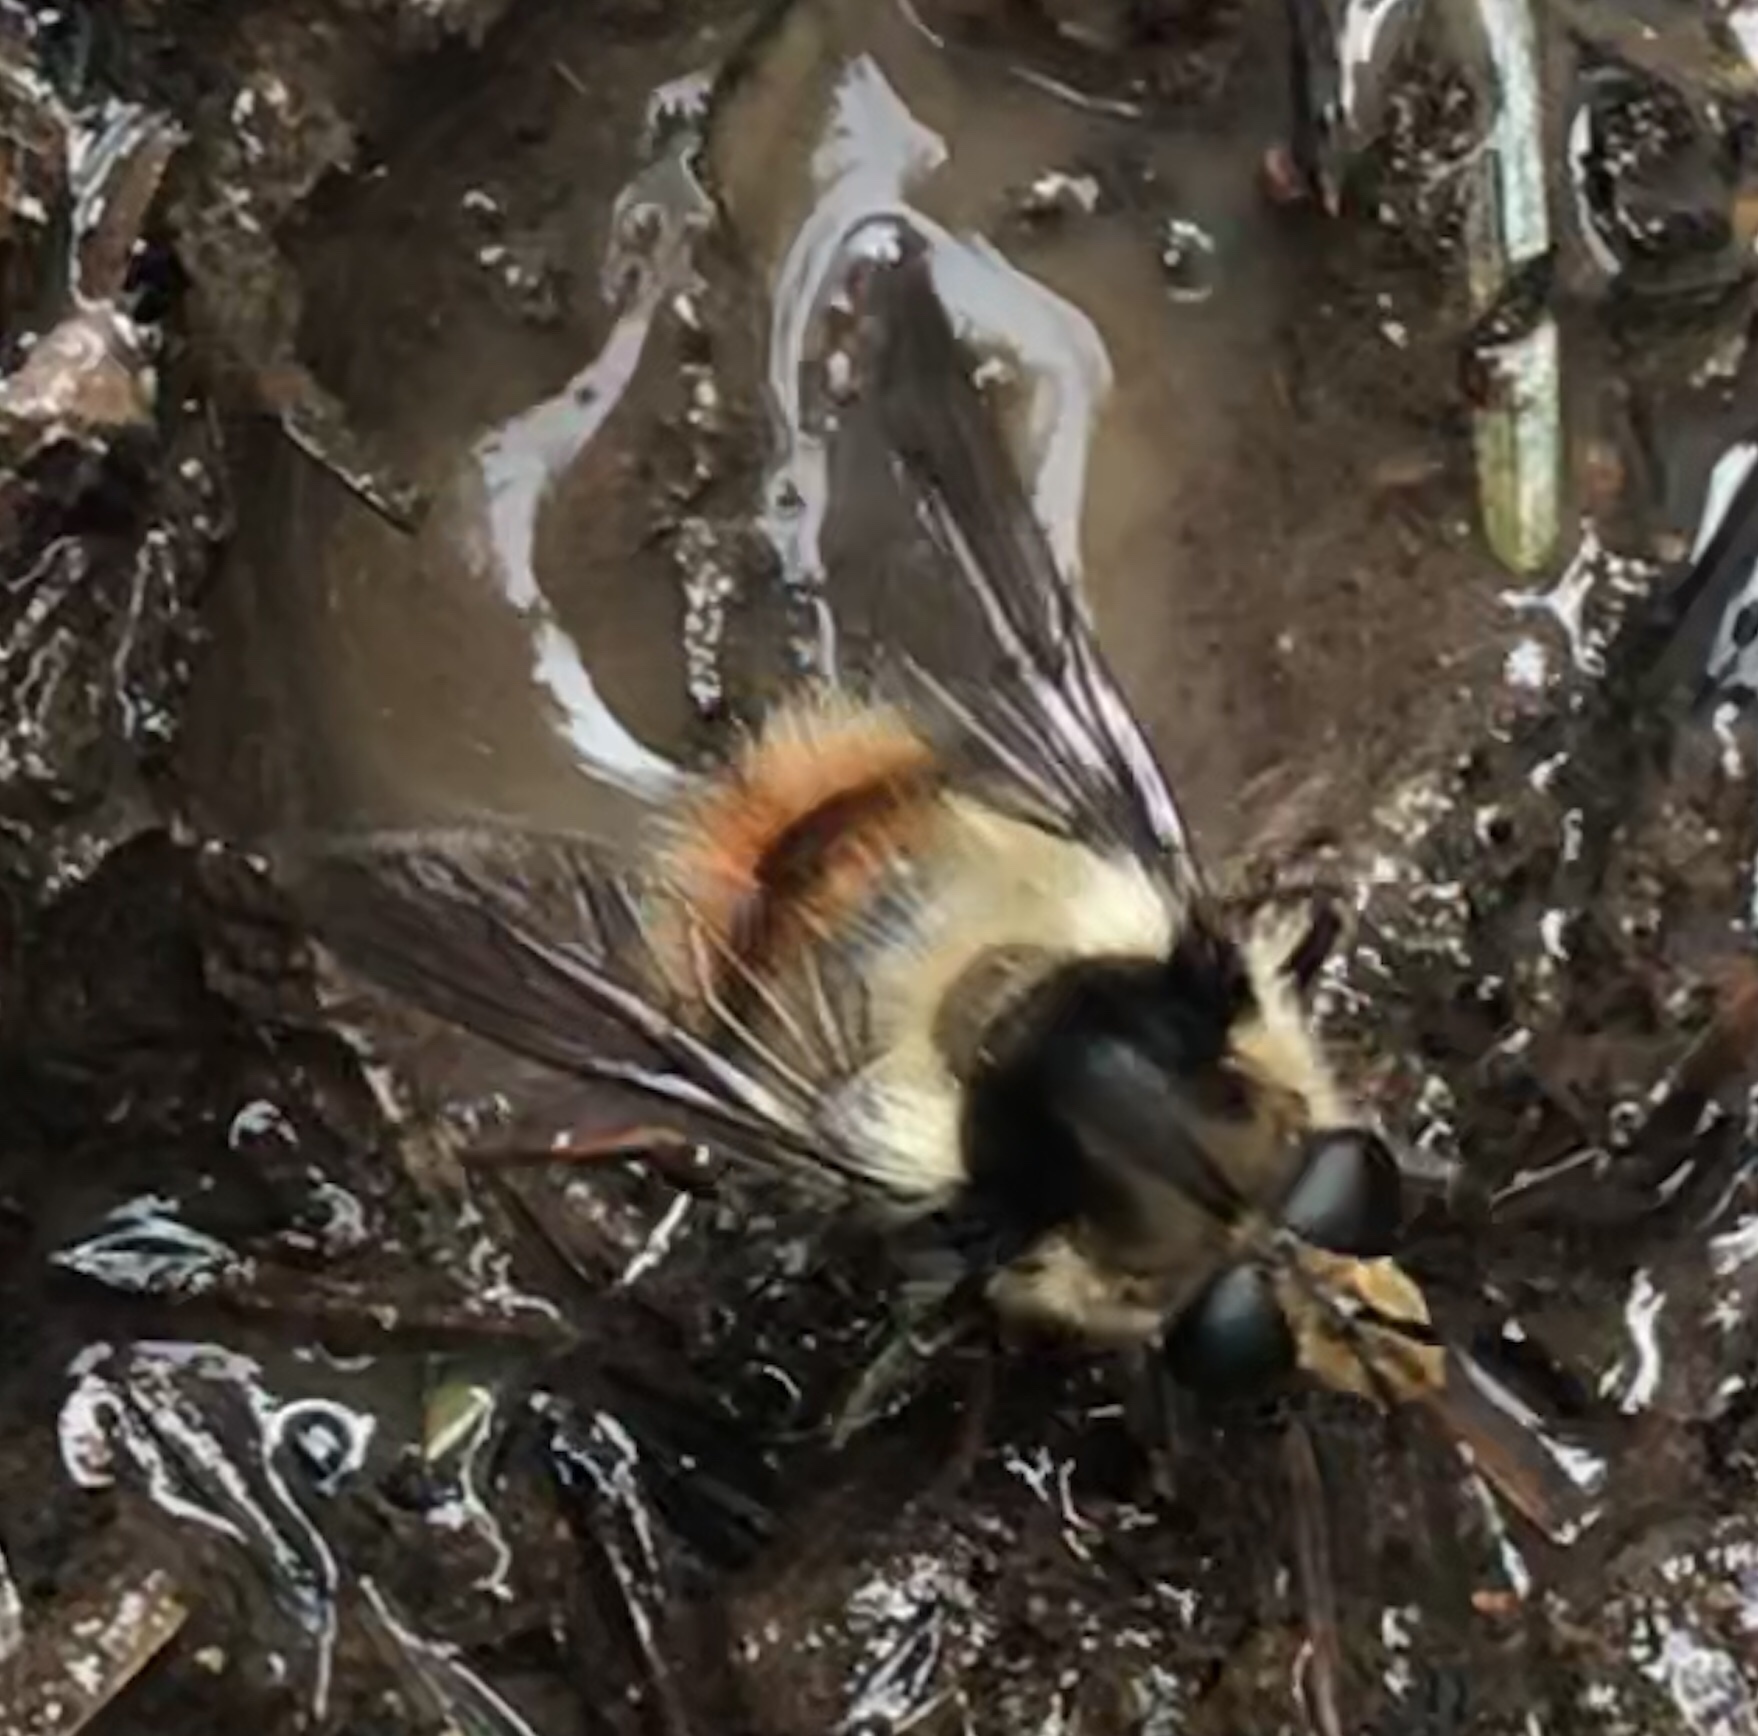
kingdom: Animalia
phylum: Arthropoda
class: Insecta
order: Diptera
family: Syrphidae
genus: Criorhina
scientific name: Criorhina bubulcus
